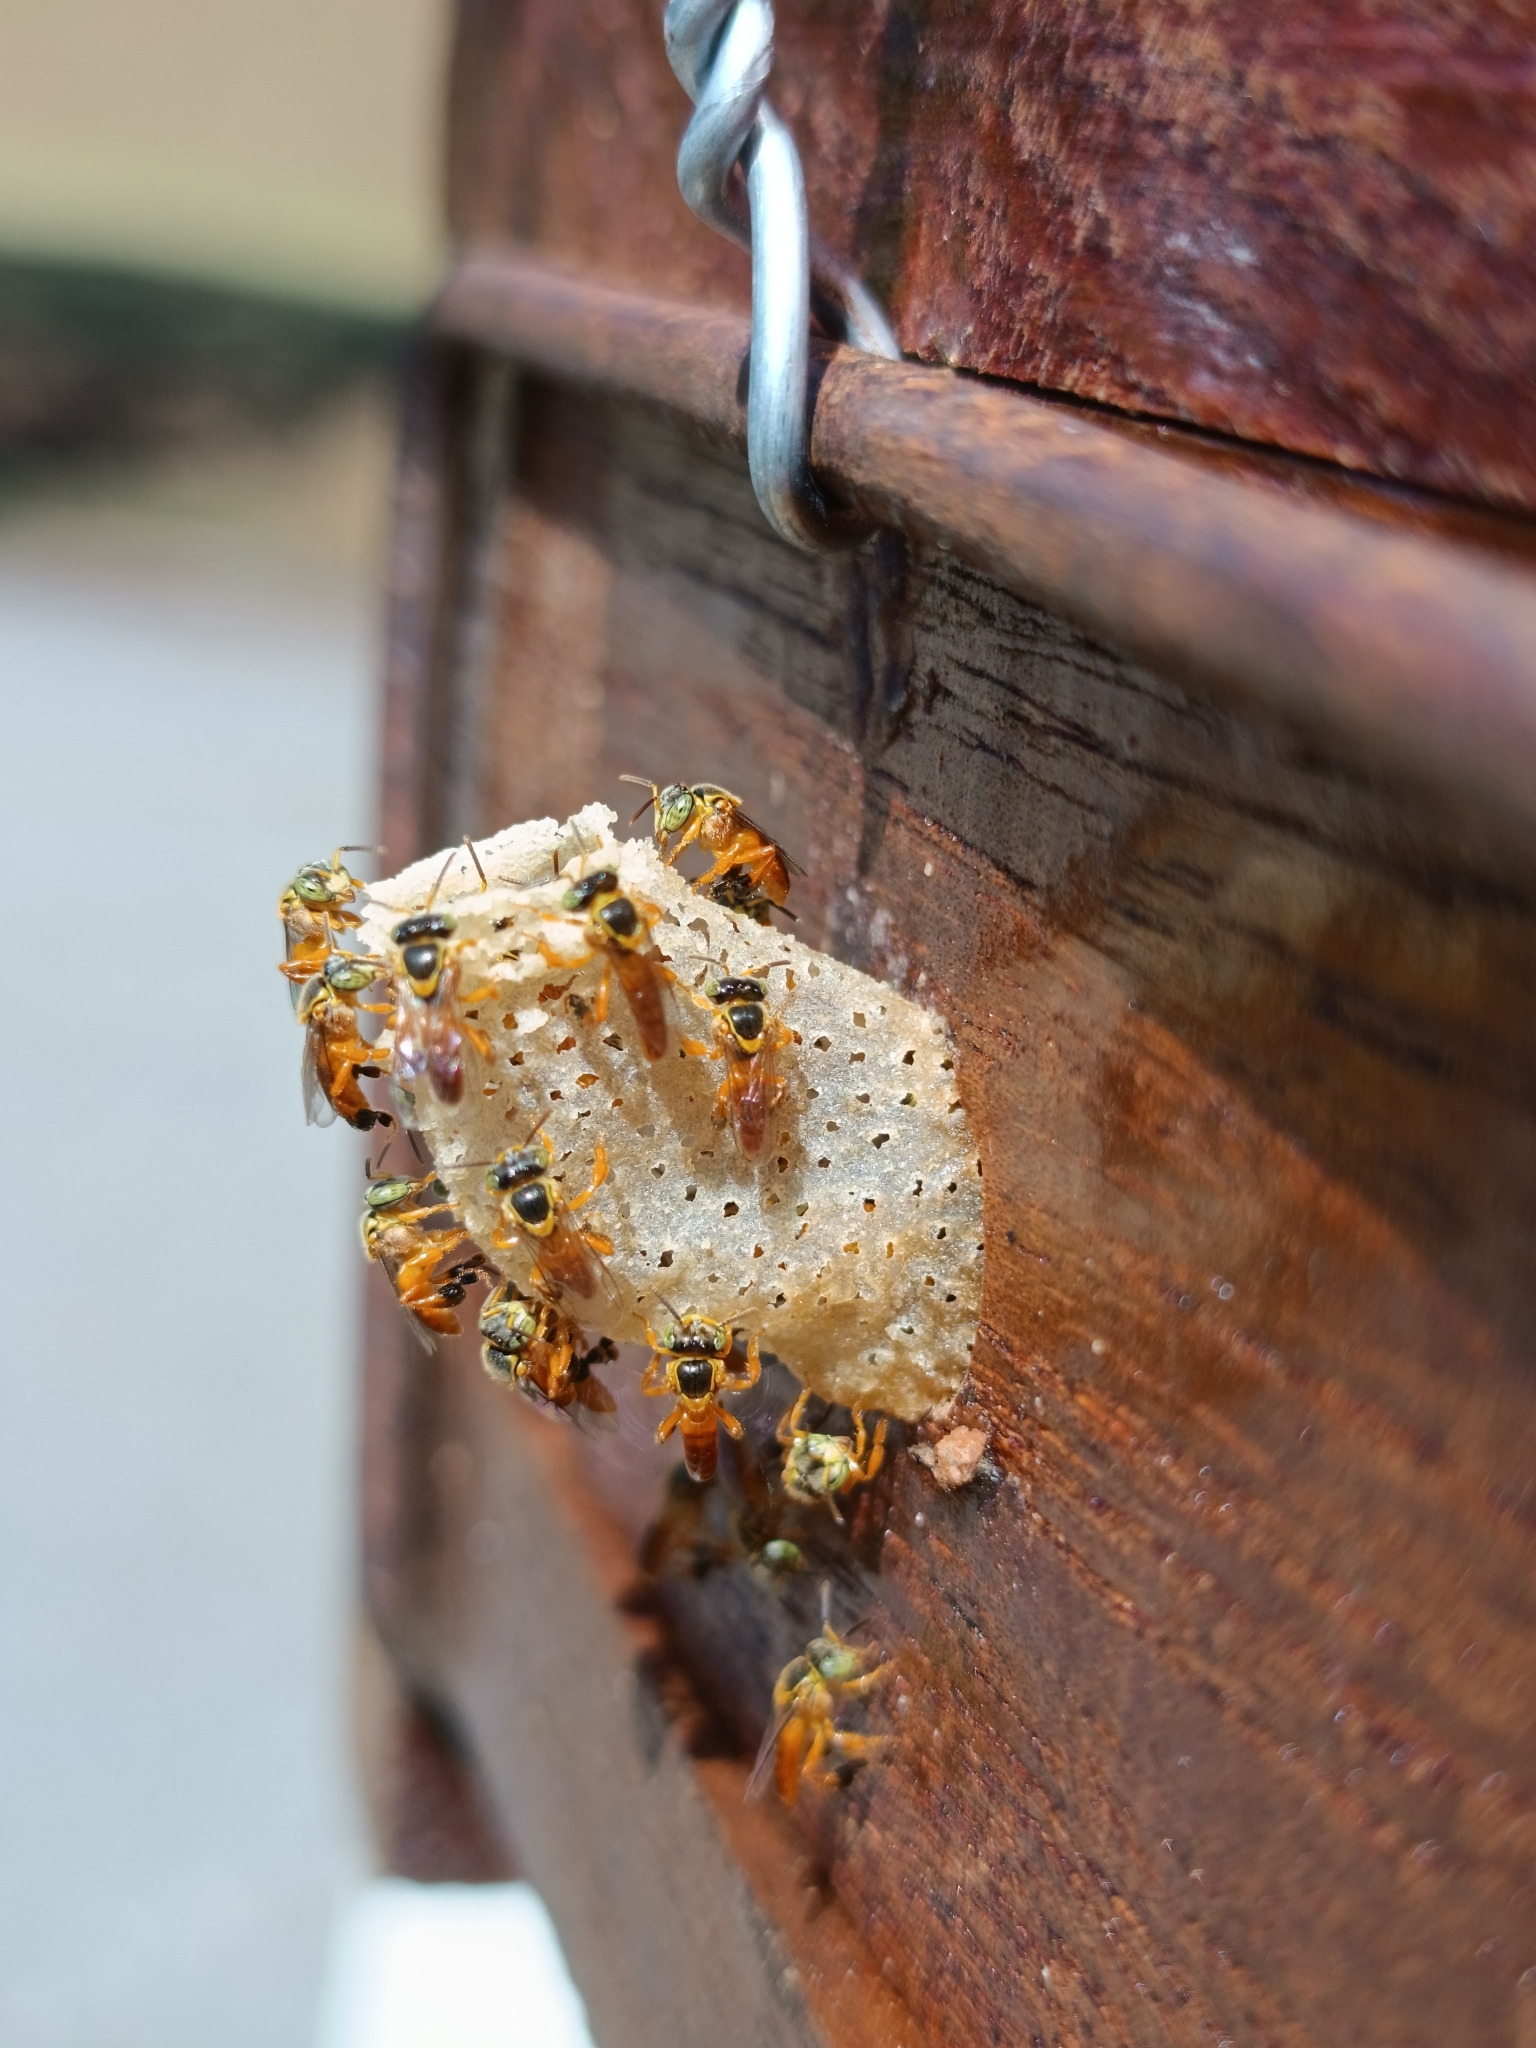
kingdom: Animalia
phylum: Arthropoda
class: Insecta
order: Hymenoptera
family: Apidae
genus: Tetragonisca
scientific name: Tetragonisca fiebrigi
